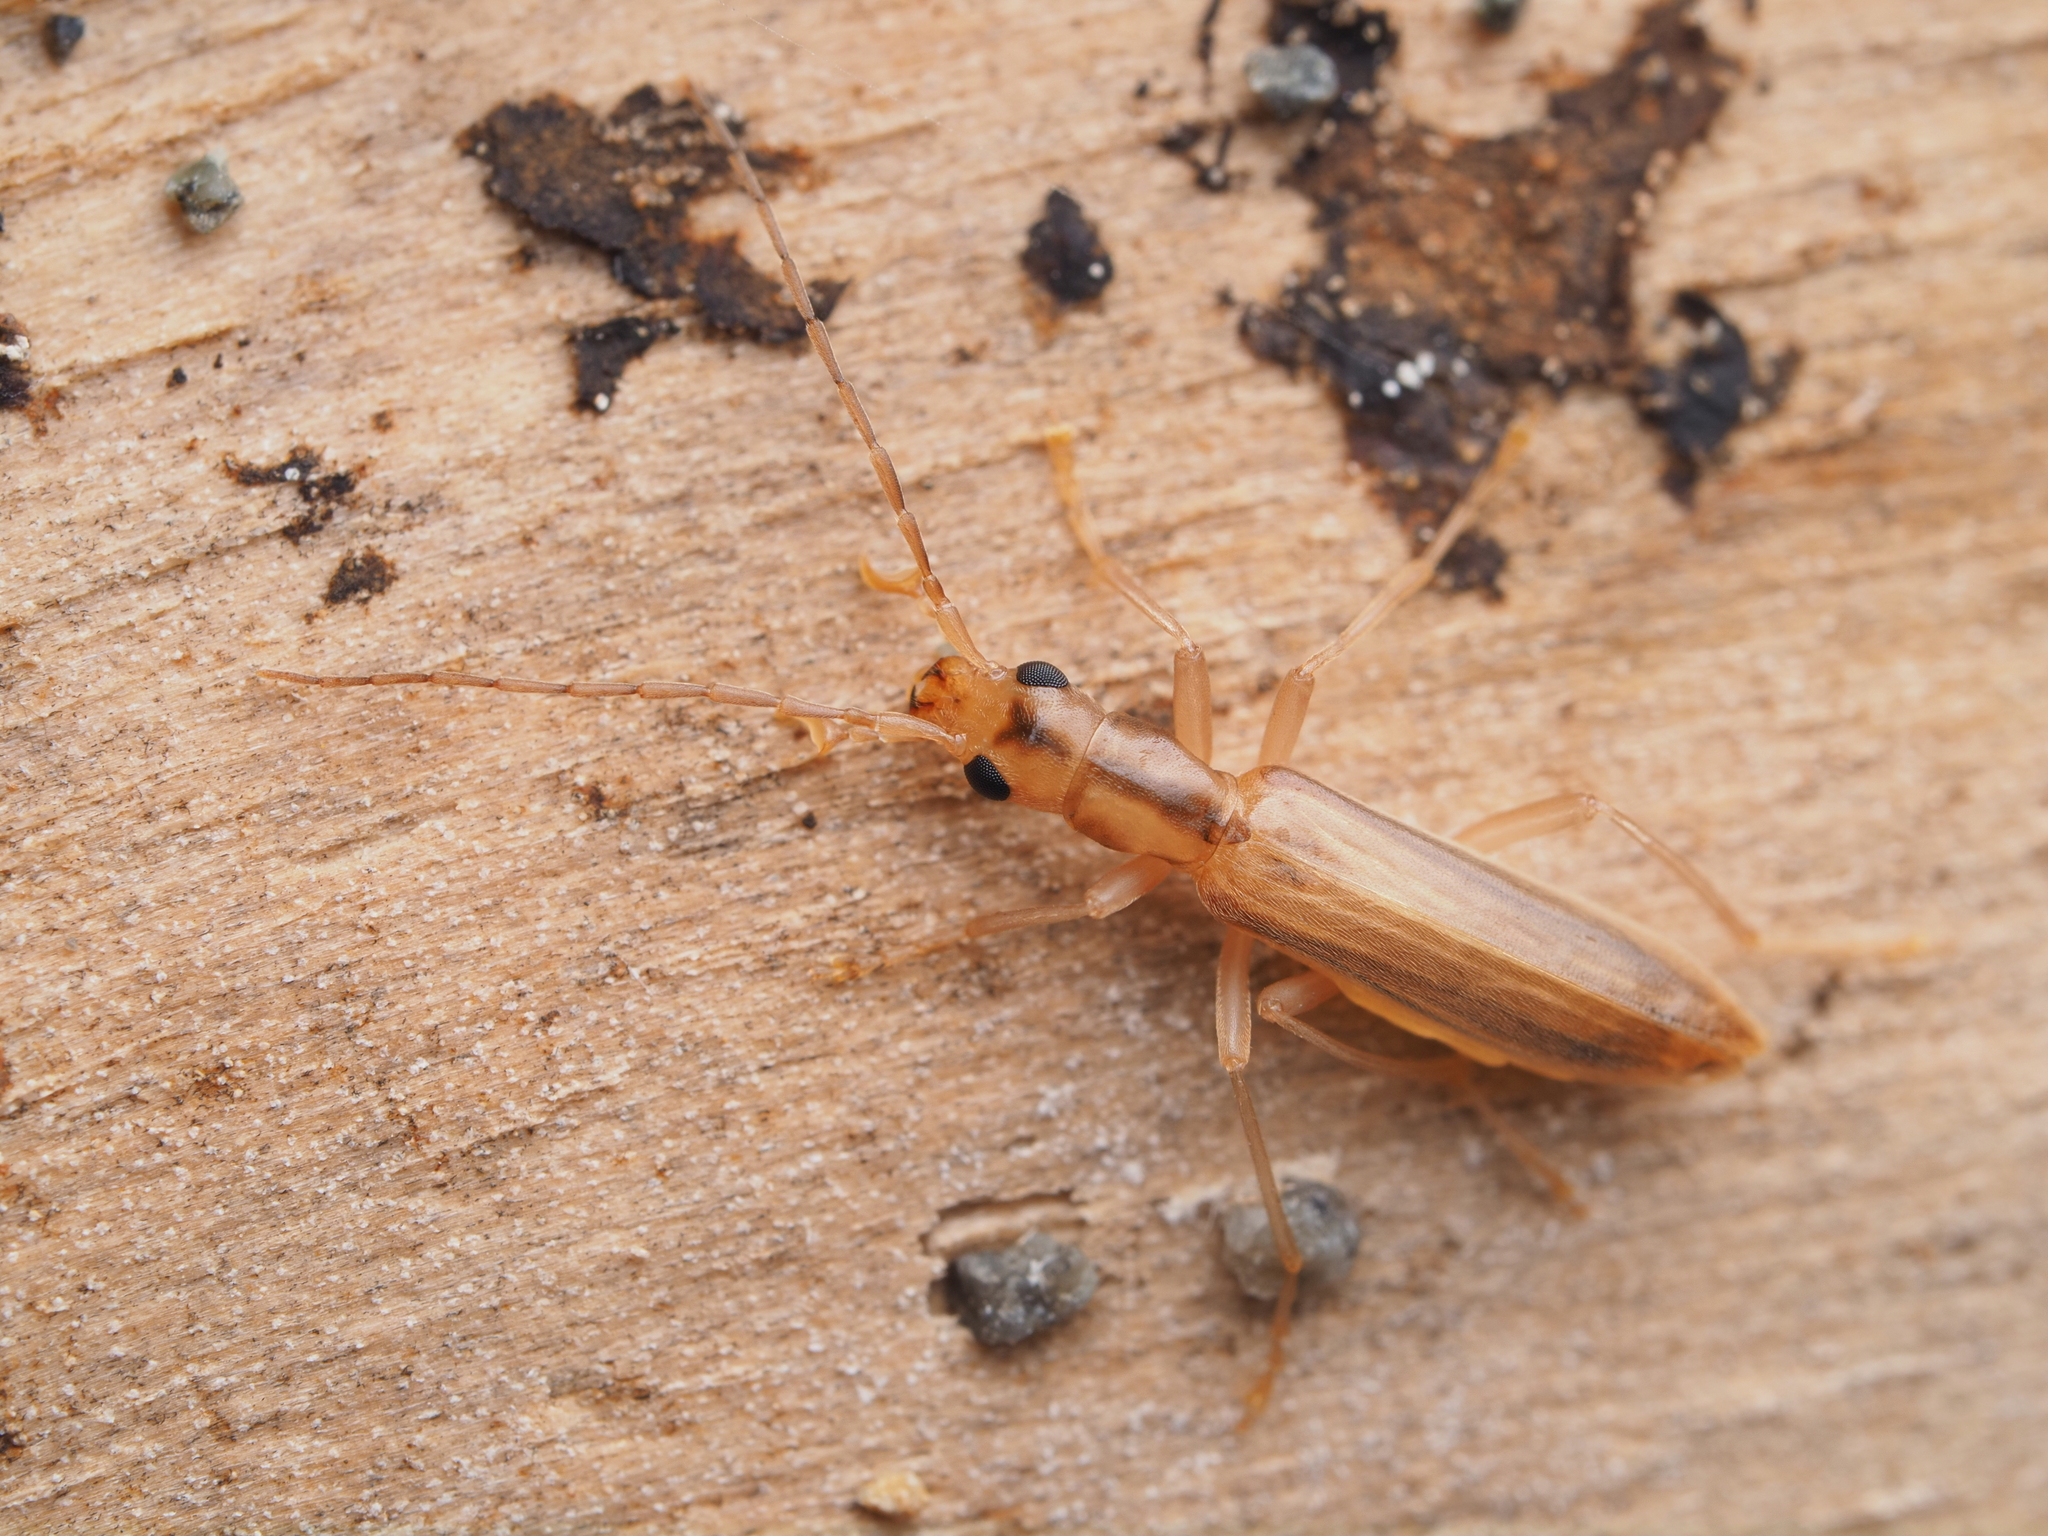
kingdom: Animalia
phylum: Arthropoda
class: Insecta
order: Coleoptera
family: Oedemeridae
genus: Thelyphassa
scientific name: Thelyphassa diaphana
